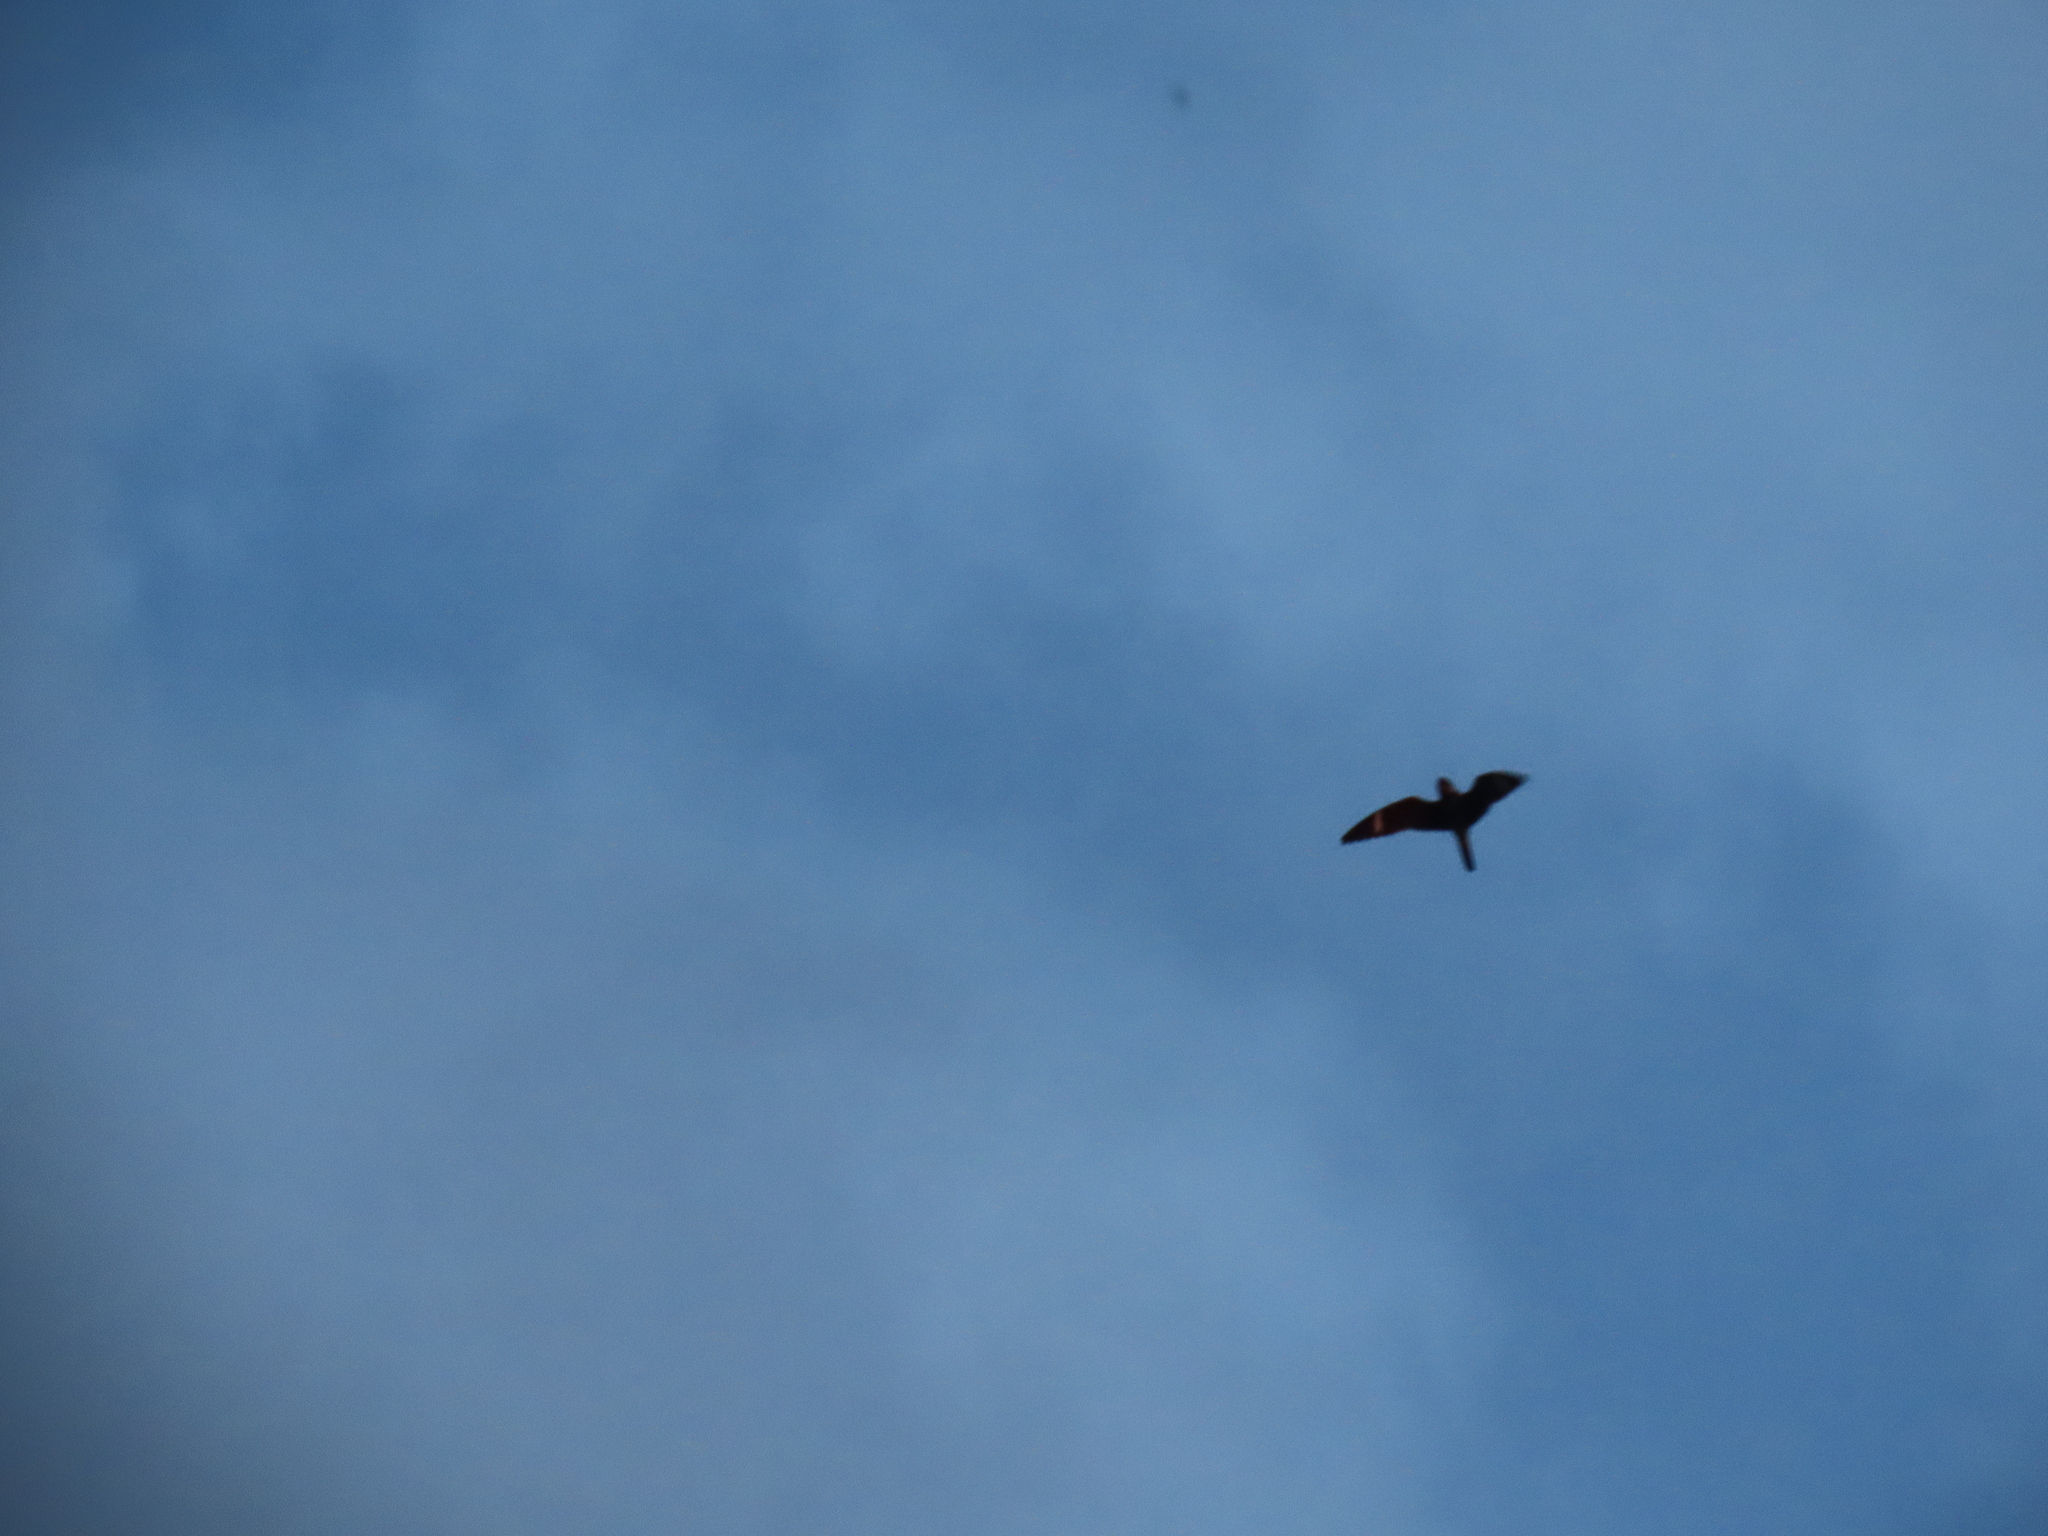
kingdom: Animalia
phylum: Chordata
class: Aves
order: Caprimulgiformes
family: Caprimulgidae
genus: Chordeiles
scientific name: Chordeiles minor
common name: Common nighthawk
